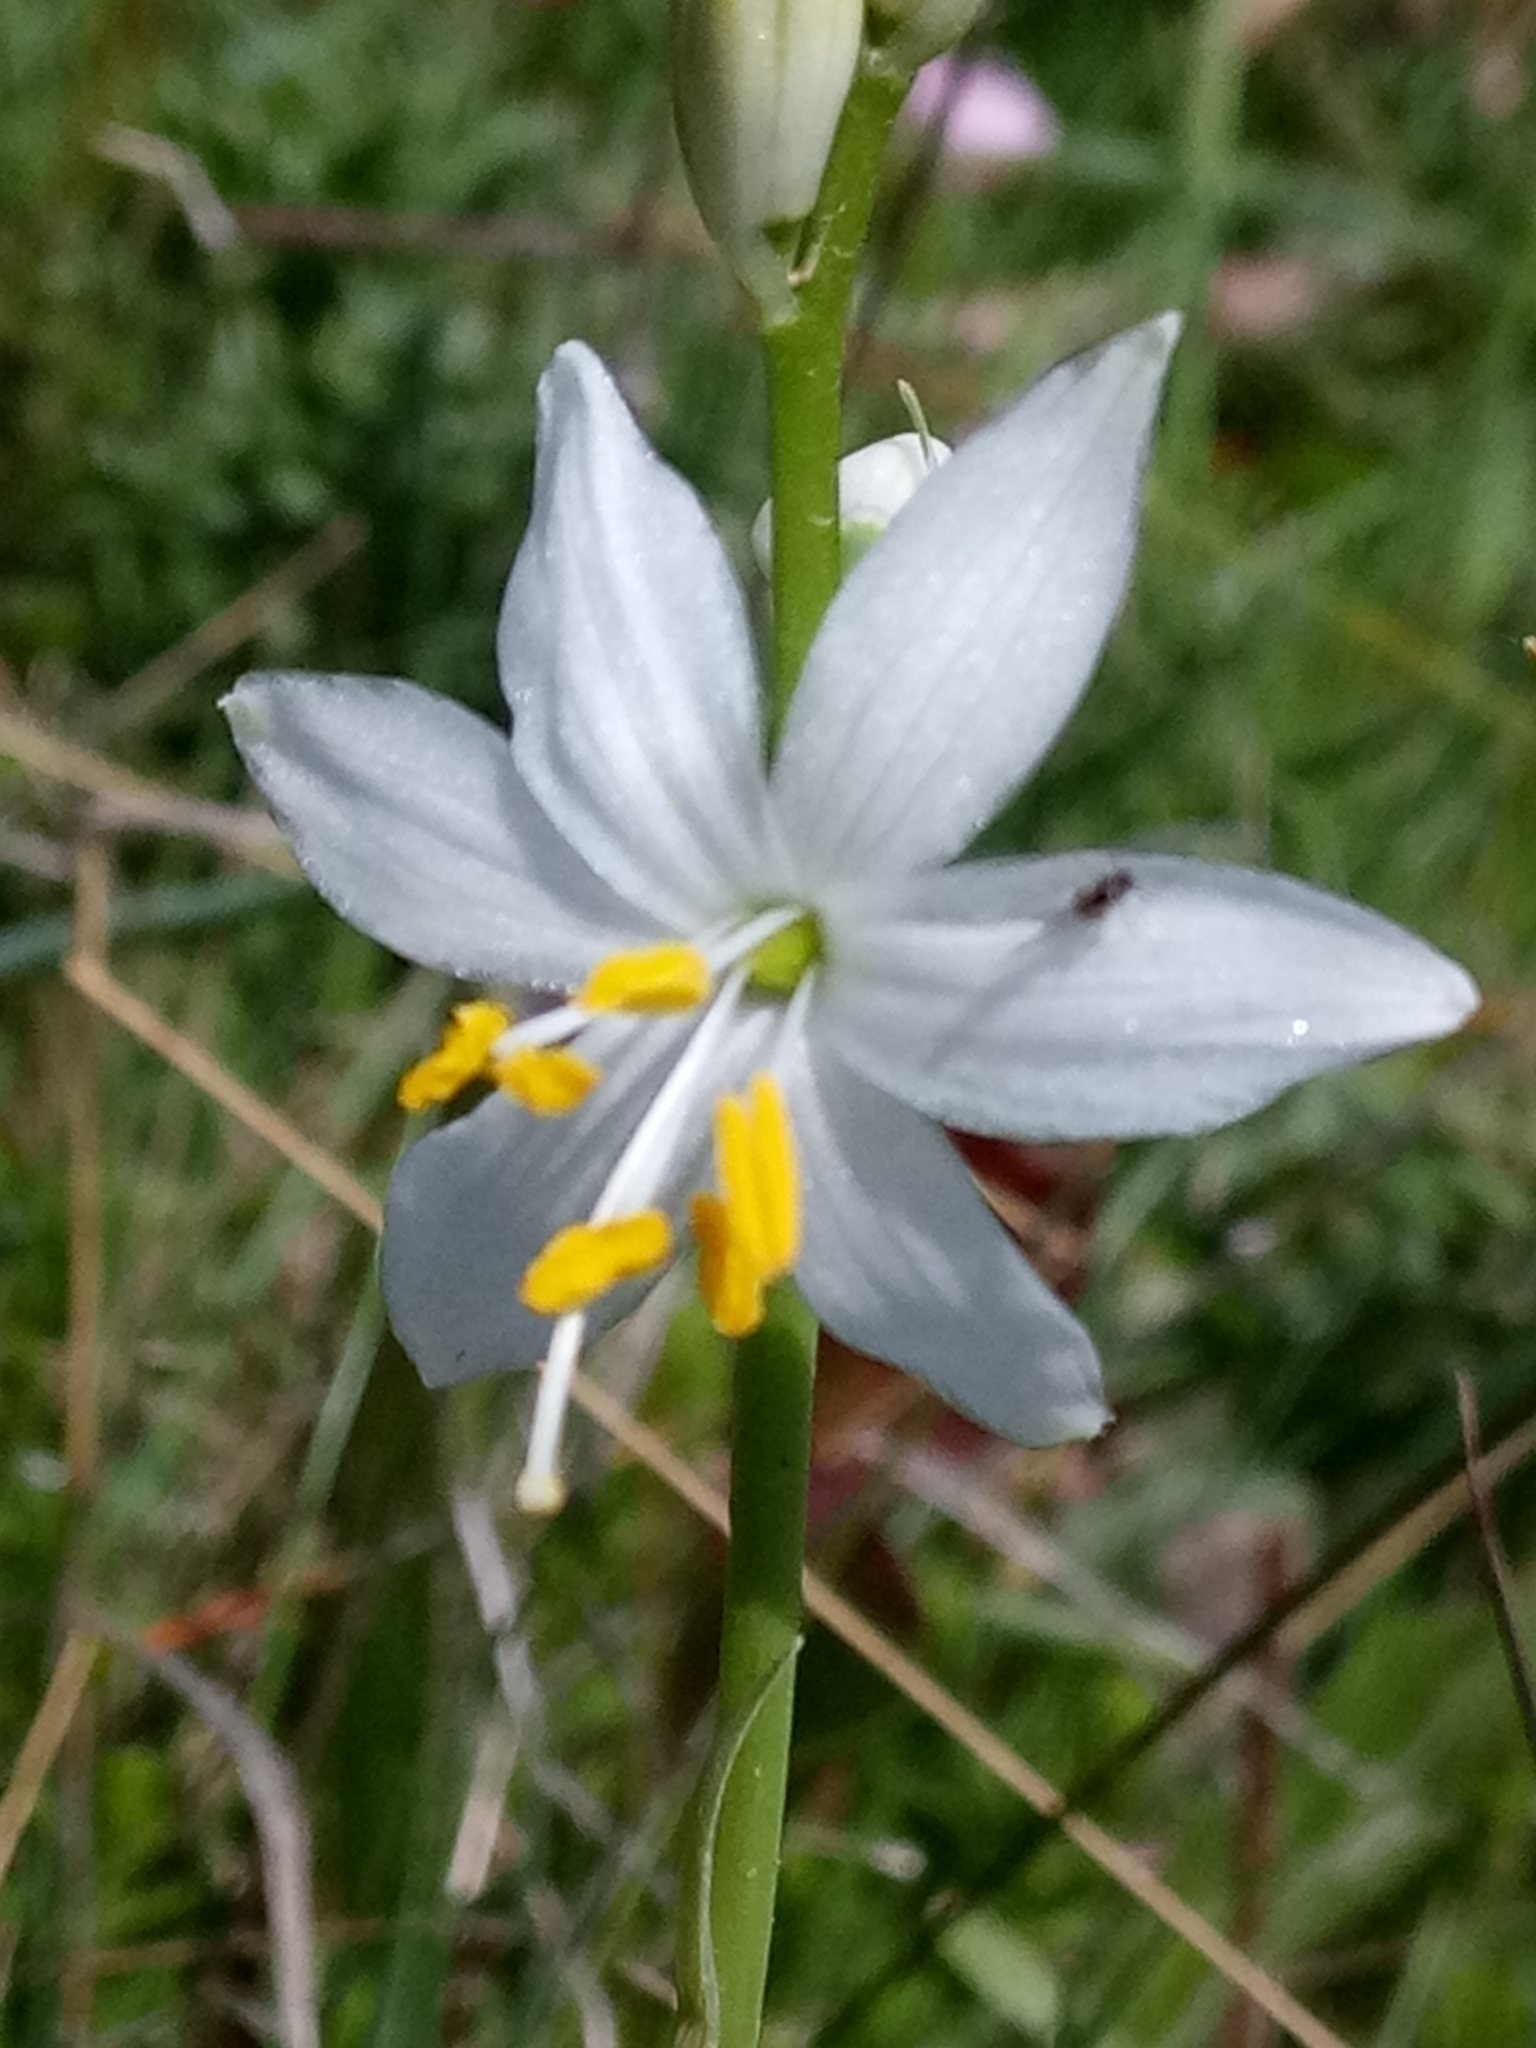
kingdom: Plantae
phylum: Tracheophyta
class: Liliopsida
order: Asparagales
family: Asparagaceae
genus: Anthericum
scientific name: Anthericum baeticum
